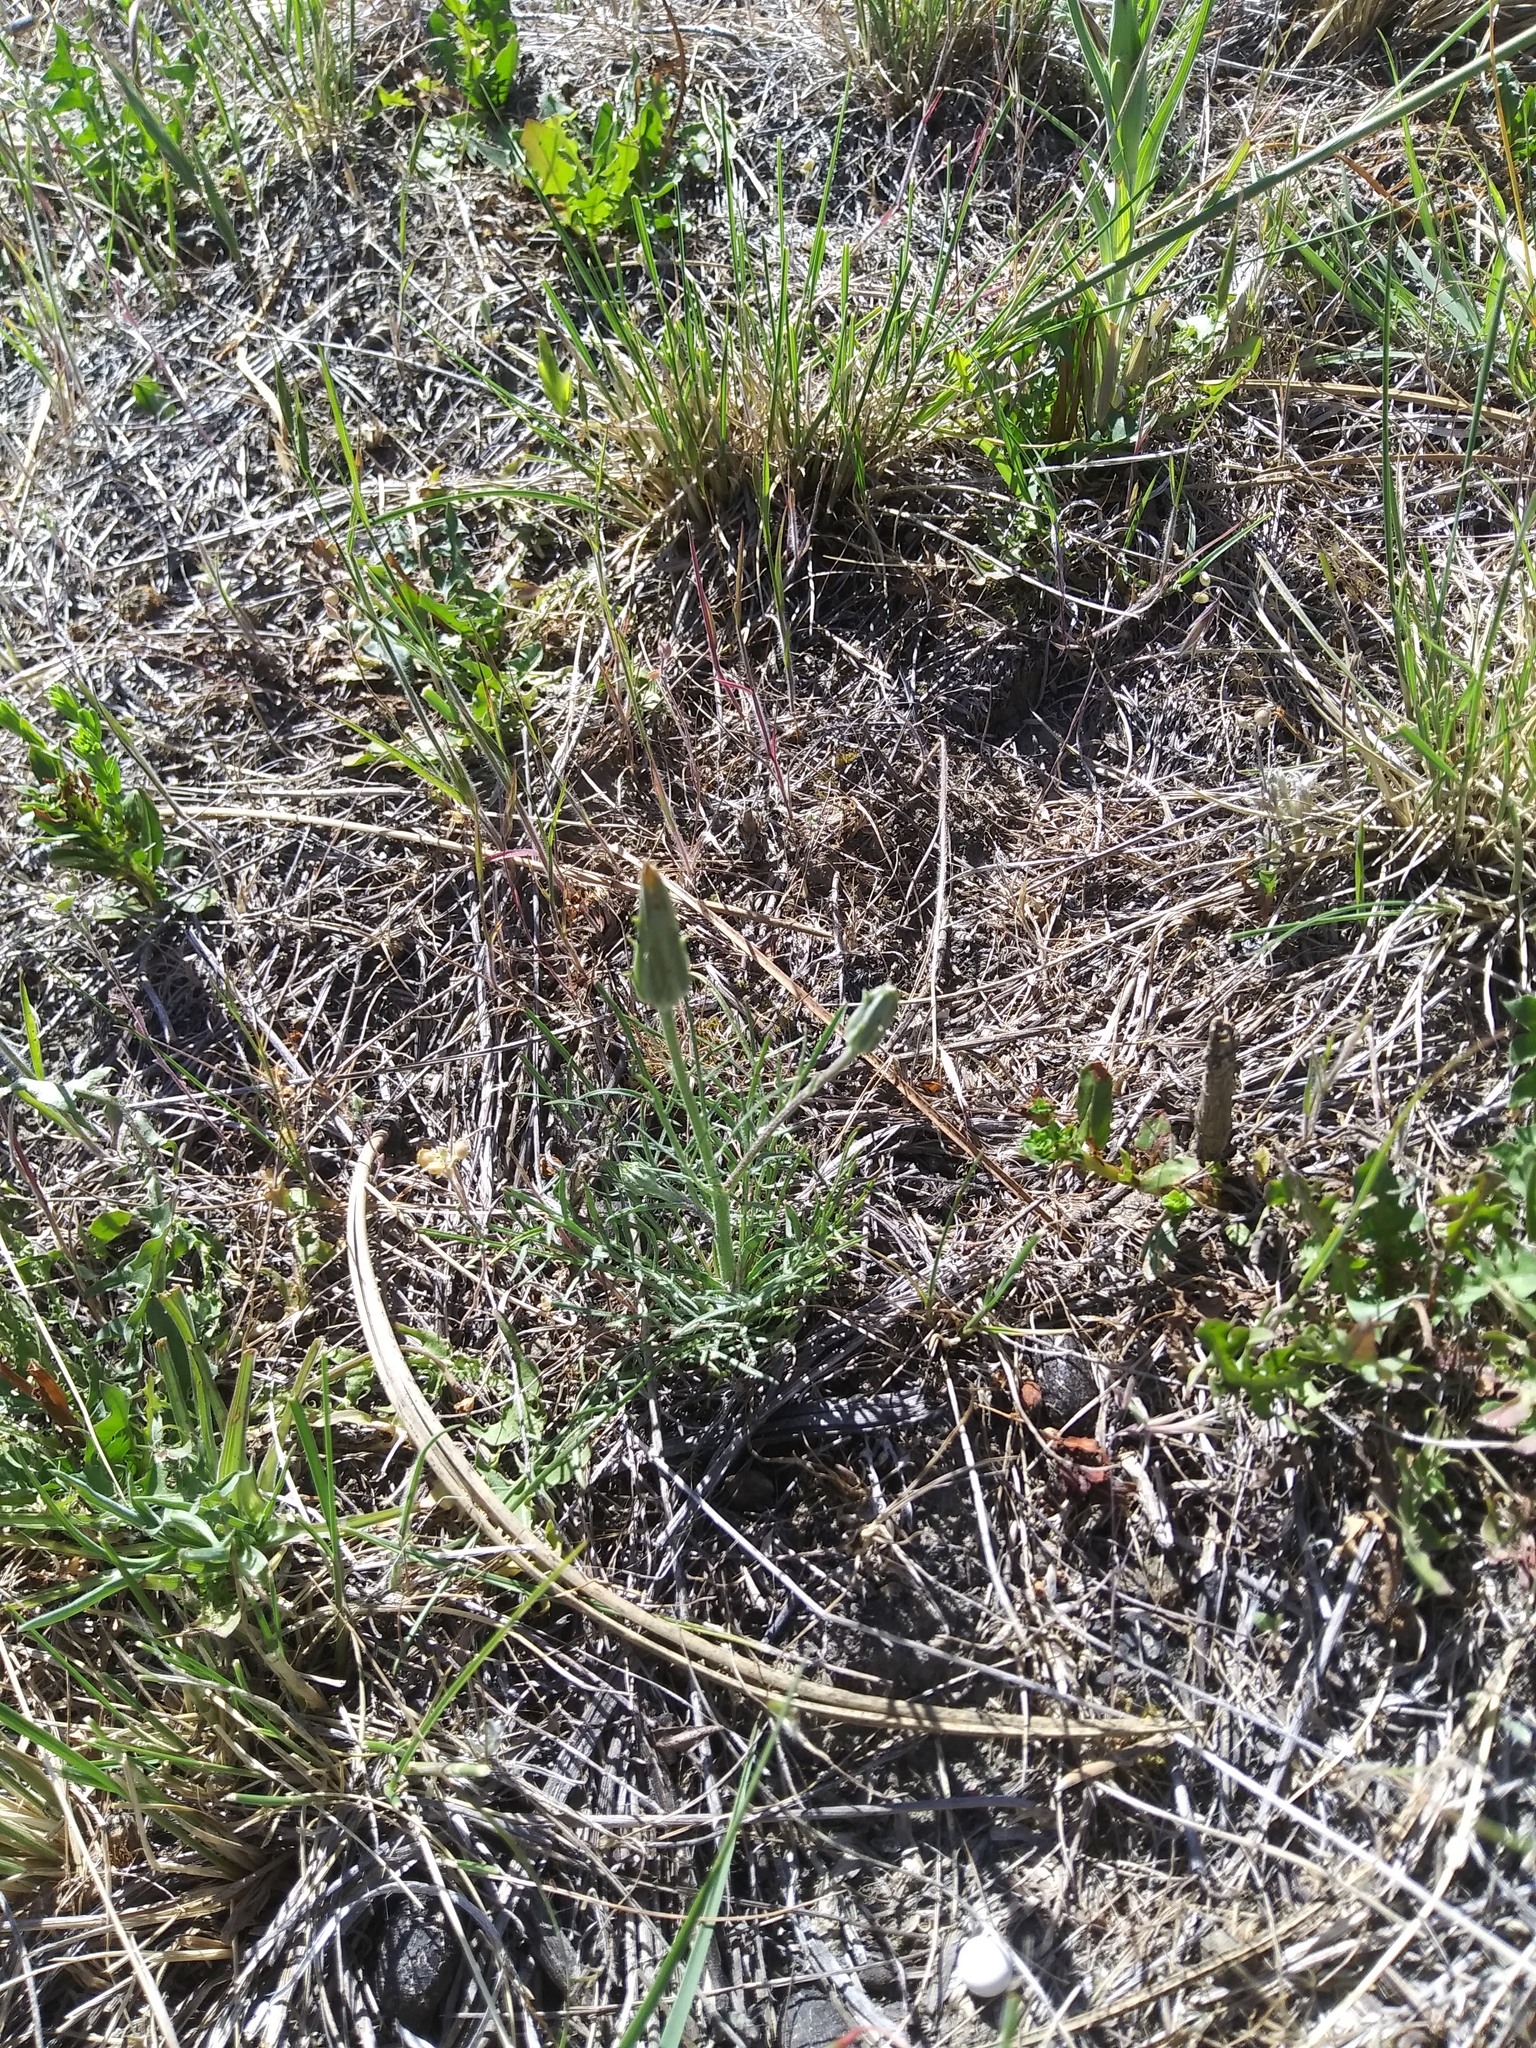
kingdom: Plantae
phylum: Tracheophyta
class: Magnoliopsida
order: Asterales
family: Asteraceae
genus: Scorzonera
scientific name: Scorzonera laciniata
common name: Cutleaf vipergrass
